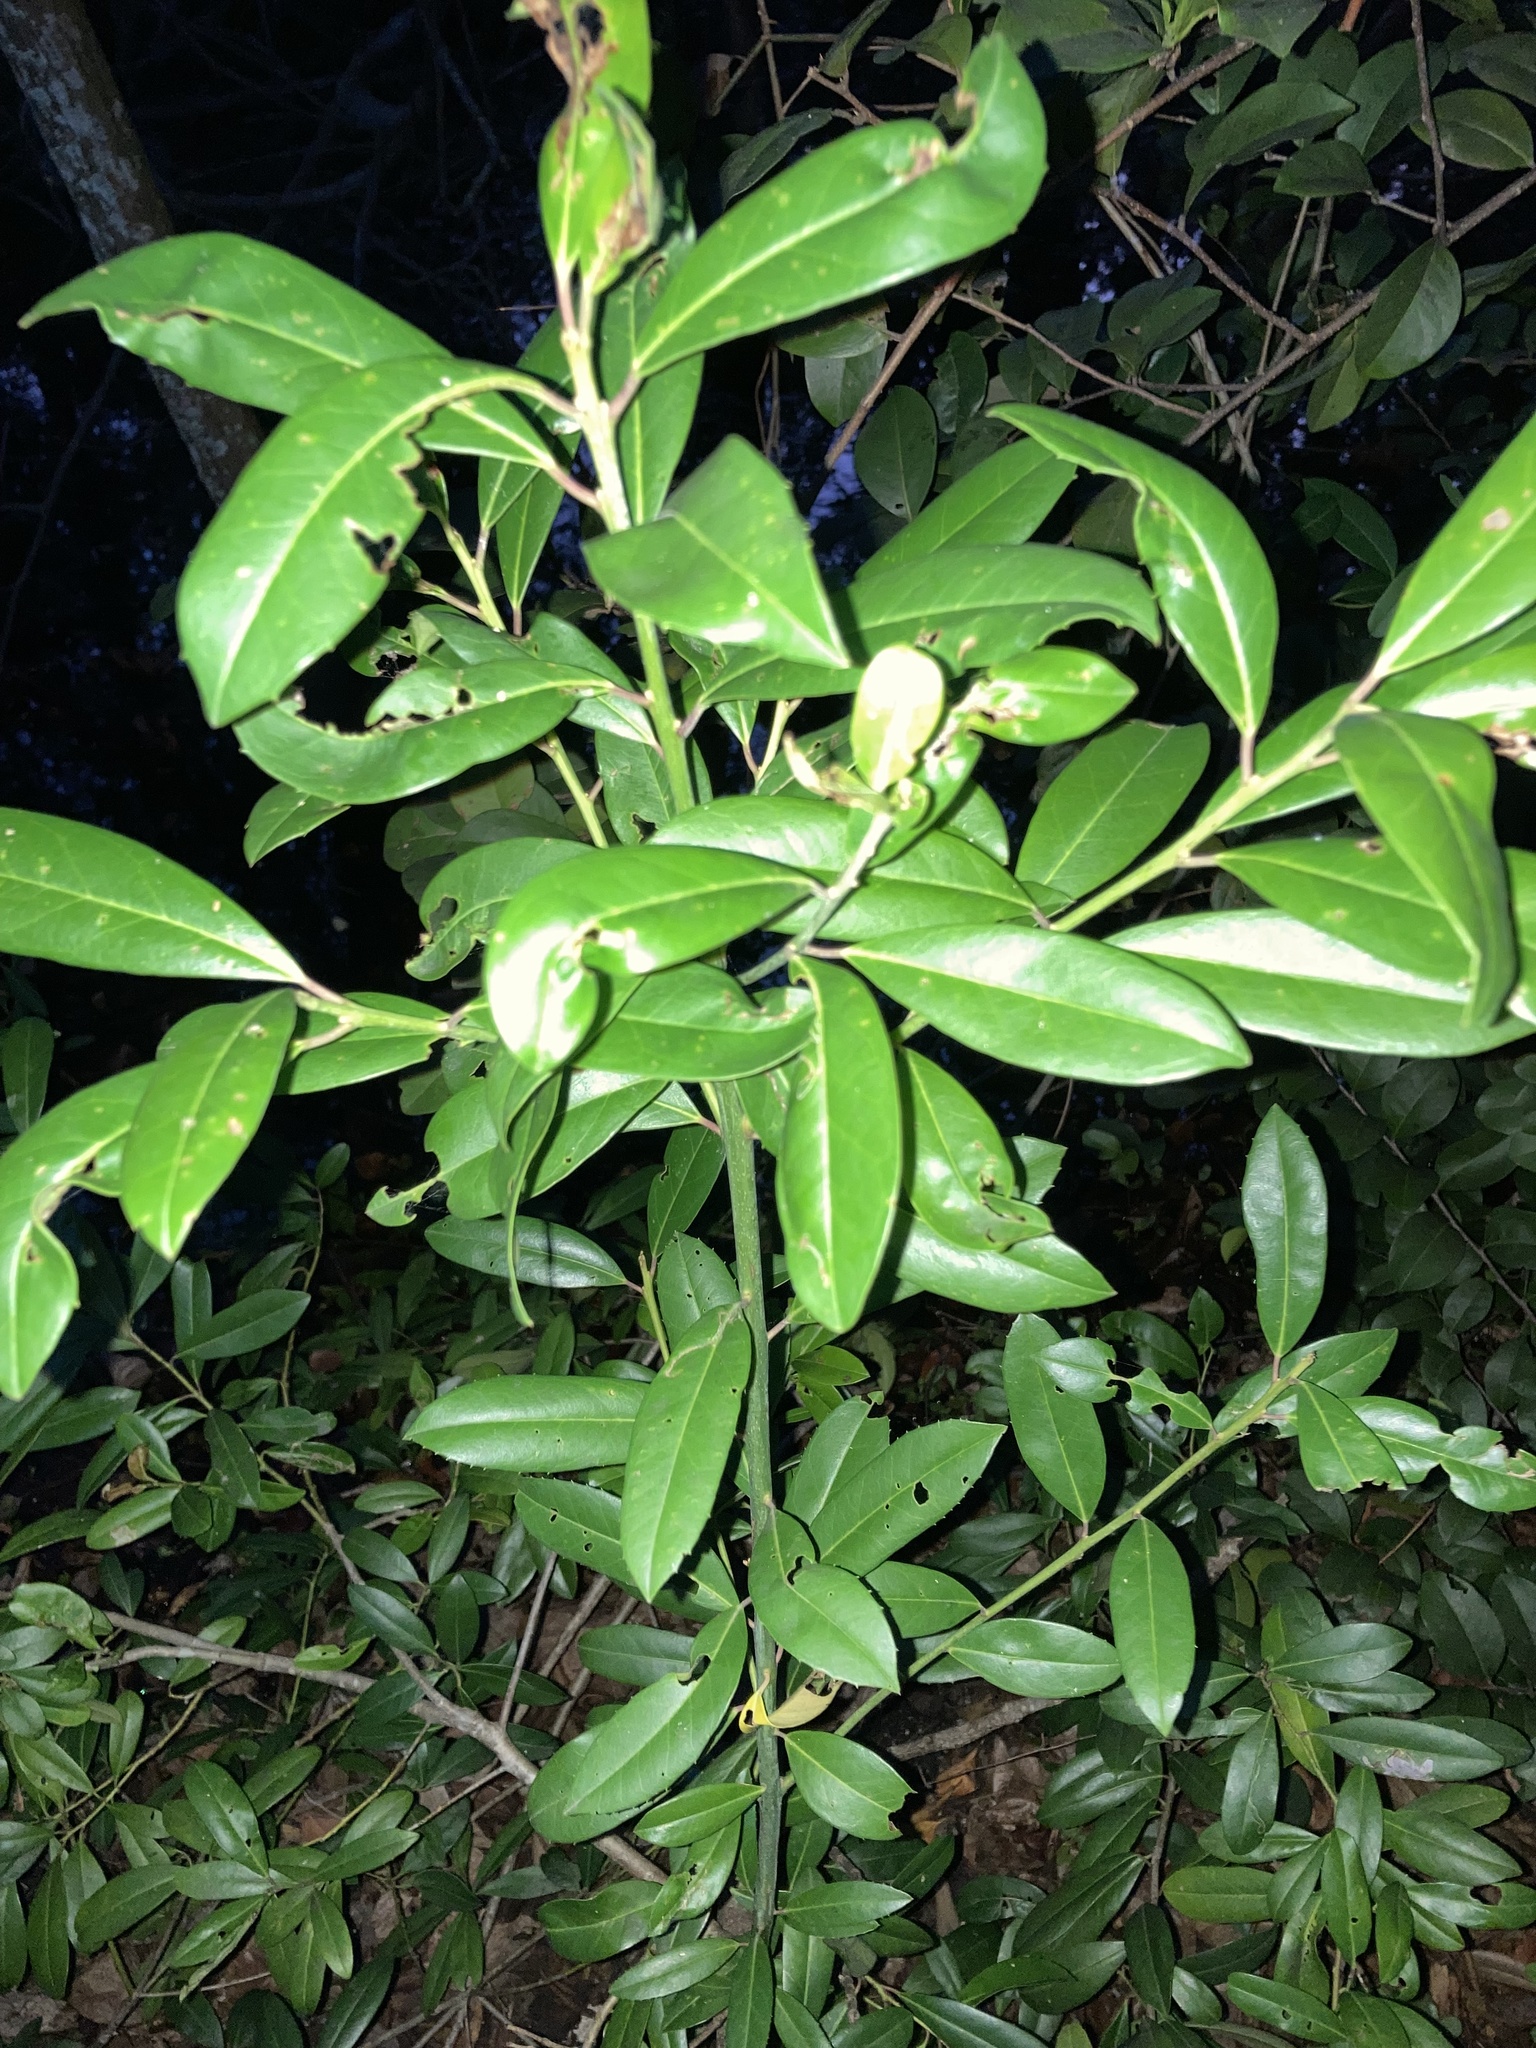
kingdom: Plantae
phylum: Tracheophyta
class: Magnoliopsida
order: Aquifoliales
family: Aquifoliaceae
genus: Ilex
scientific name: Ilex cassine
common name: Dahoon
